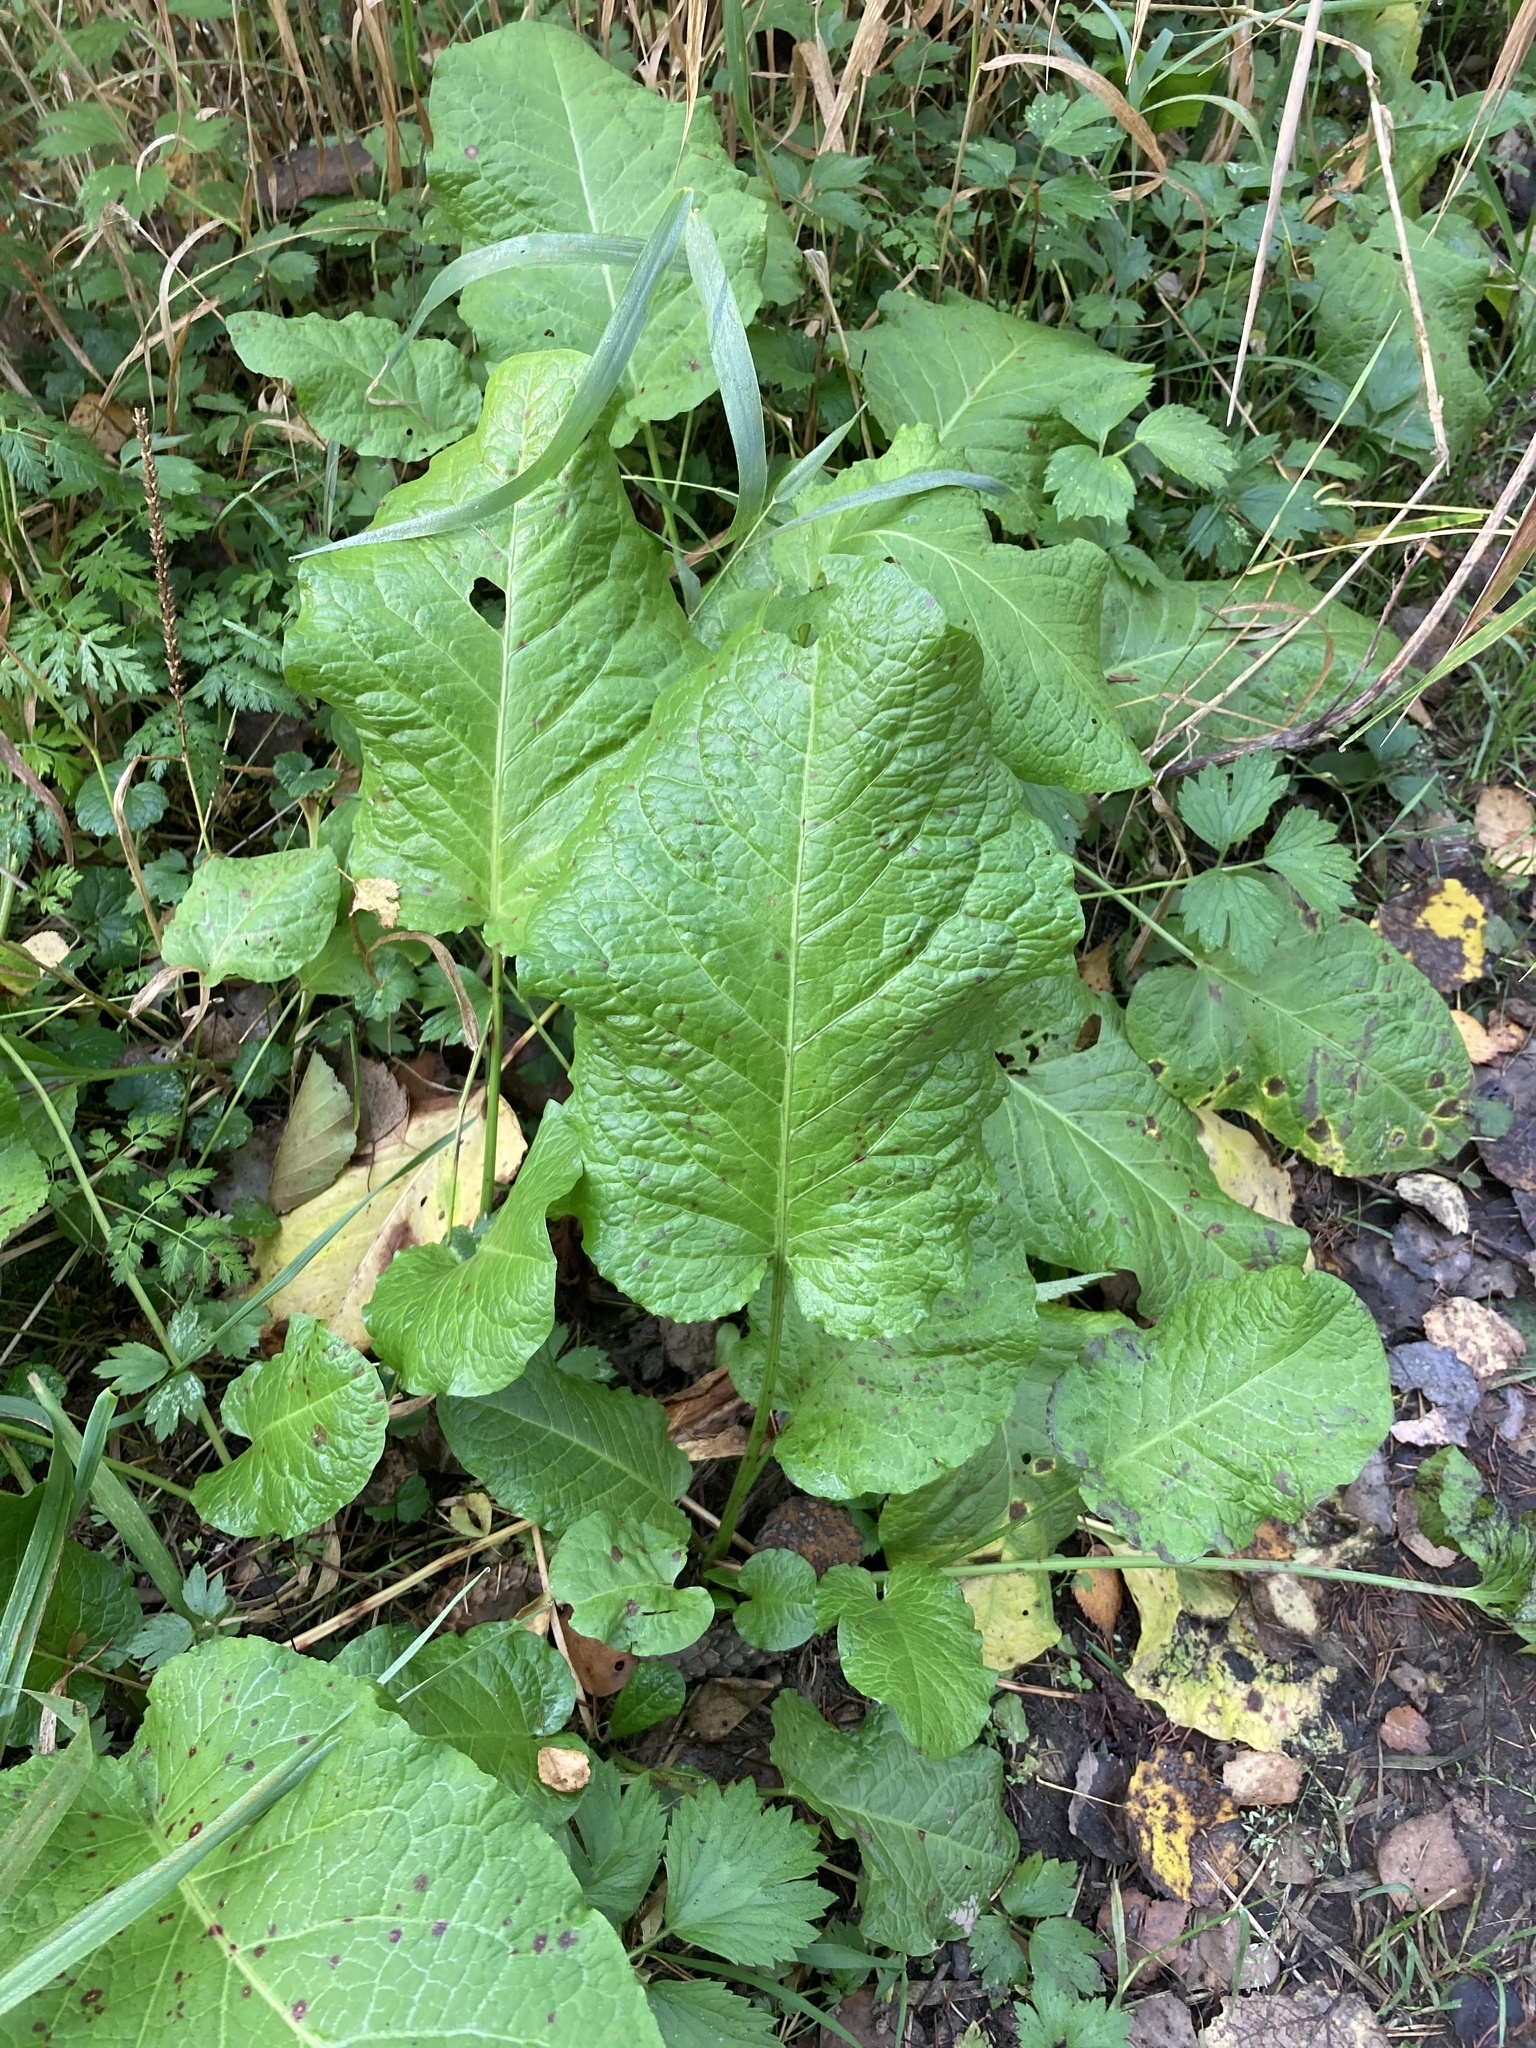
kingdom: Plantae
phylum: Tracheophyta
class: Magnoliopsida
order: Caryophyllales
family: Polygonaceae
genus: Rumex
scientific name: Rumex obtusifolius
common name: Bitter dock
